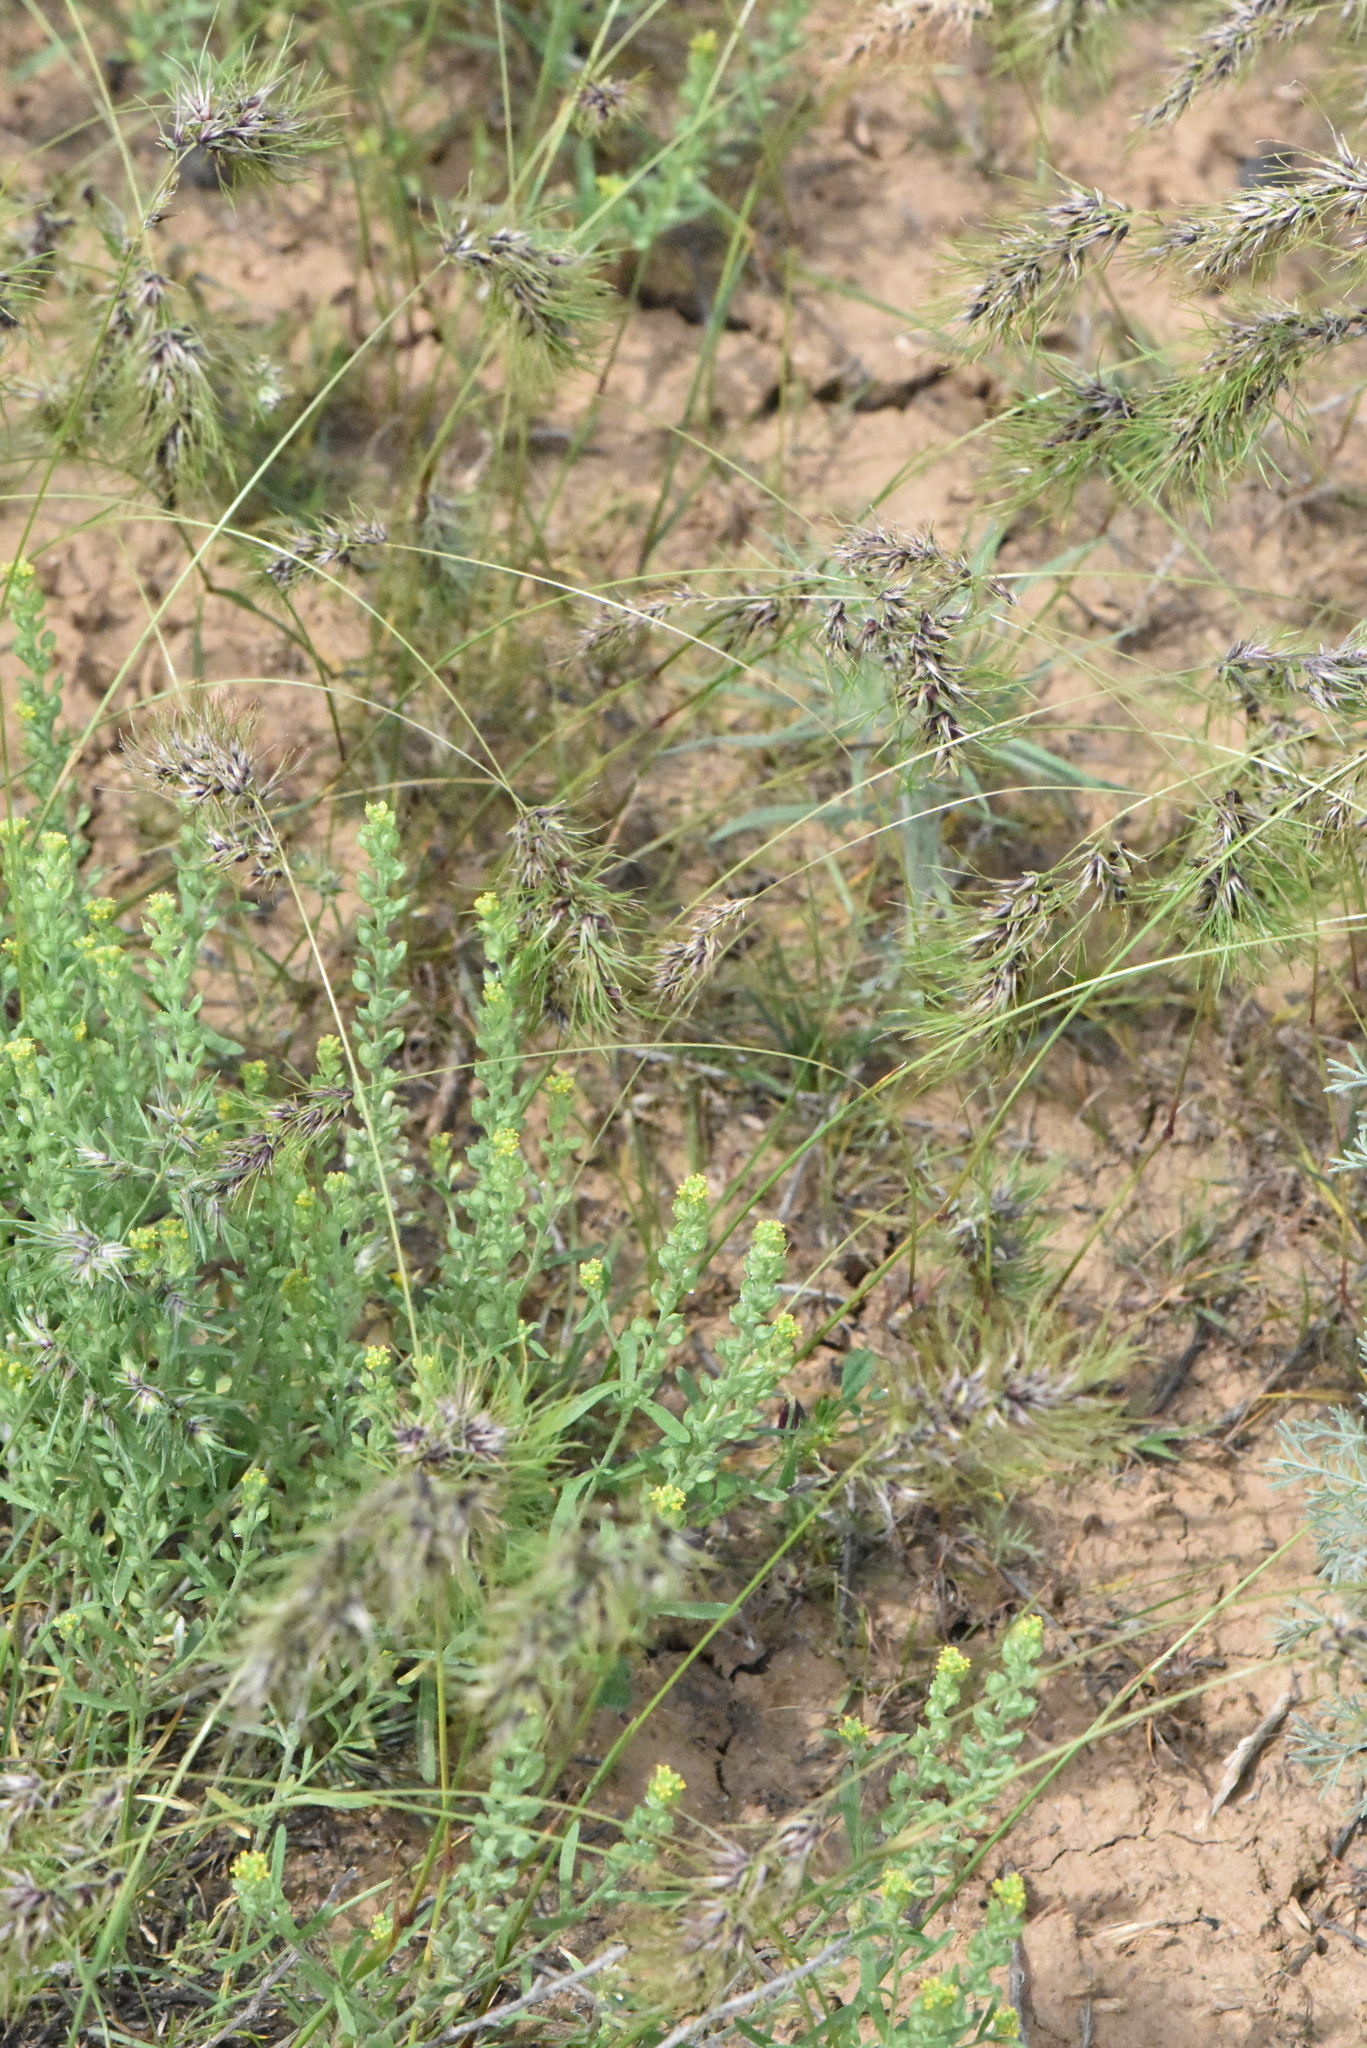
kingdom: Plantae
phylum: Tracheophyta
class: Magnoliopsida
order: Brassicales
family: Brassicaceae
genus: Alyssum
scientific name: Alyssum turkestanicum
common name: Desert alyssum
